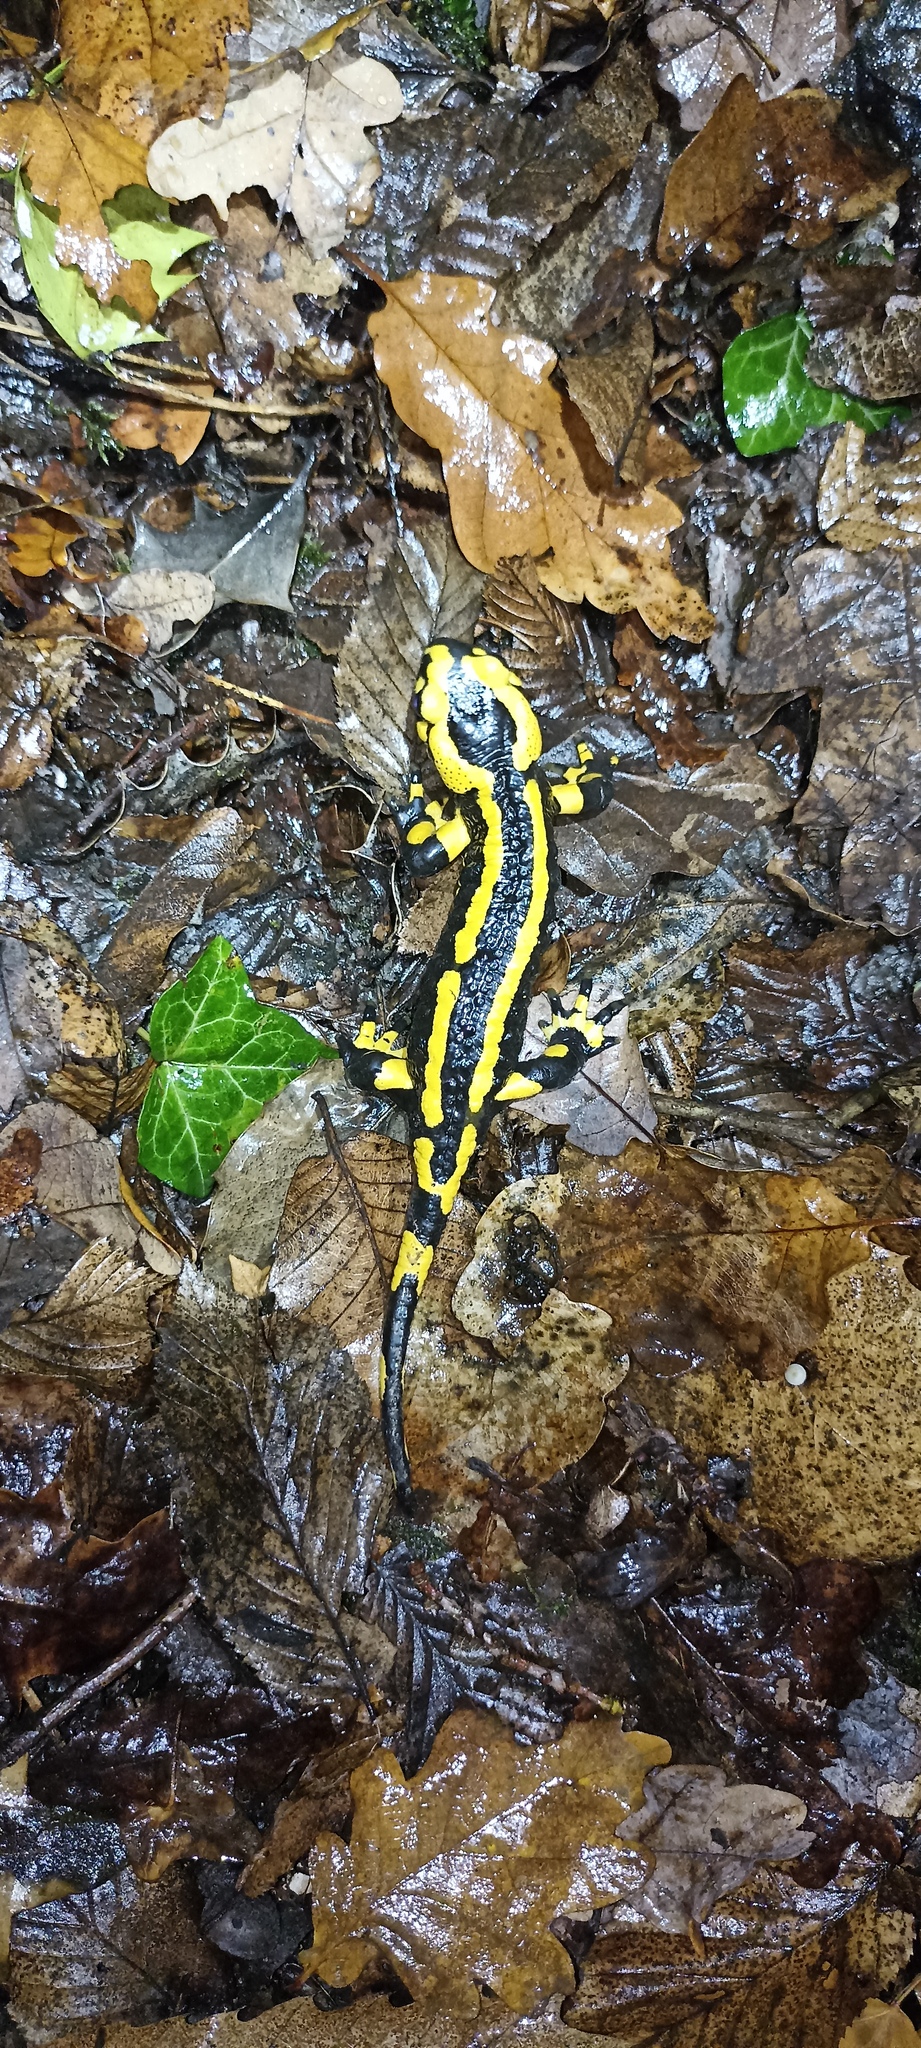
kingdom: Animalia
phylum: Chordata
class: Amphibia
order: Caudata
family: Salamandridae
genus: Salamandra
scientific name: Salamandra salamandra
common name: Fire salamander
